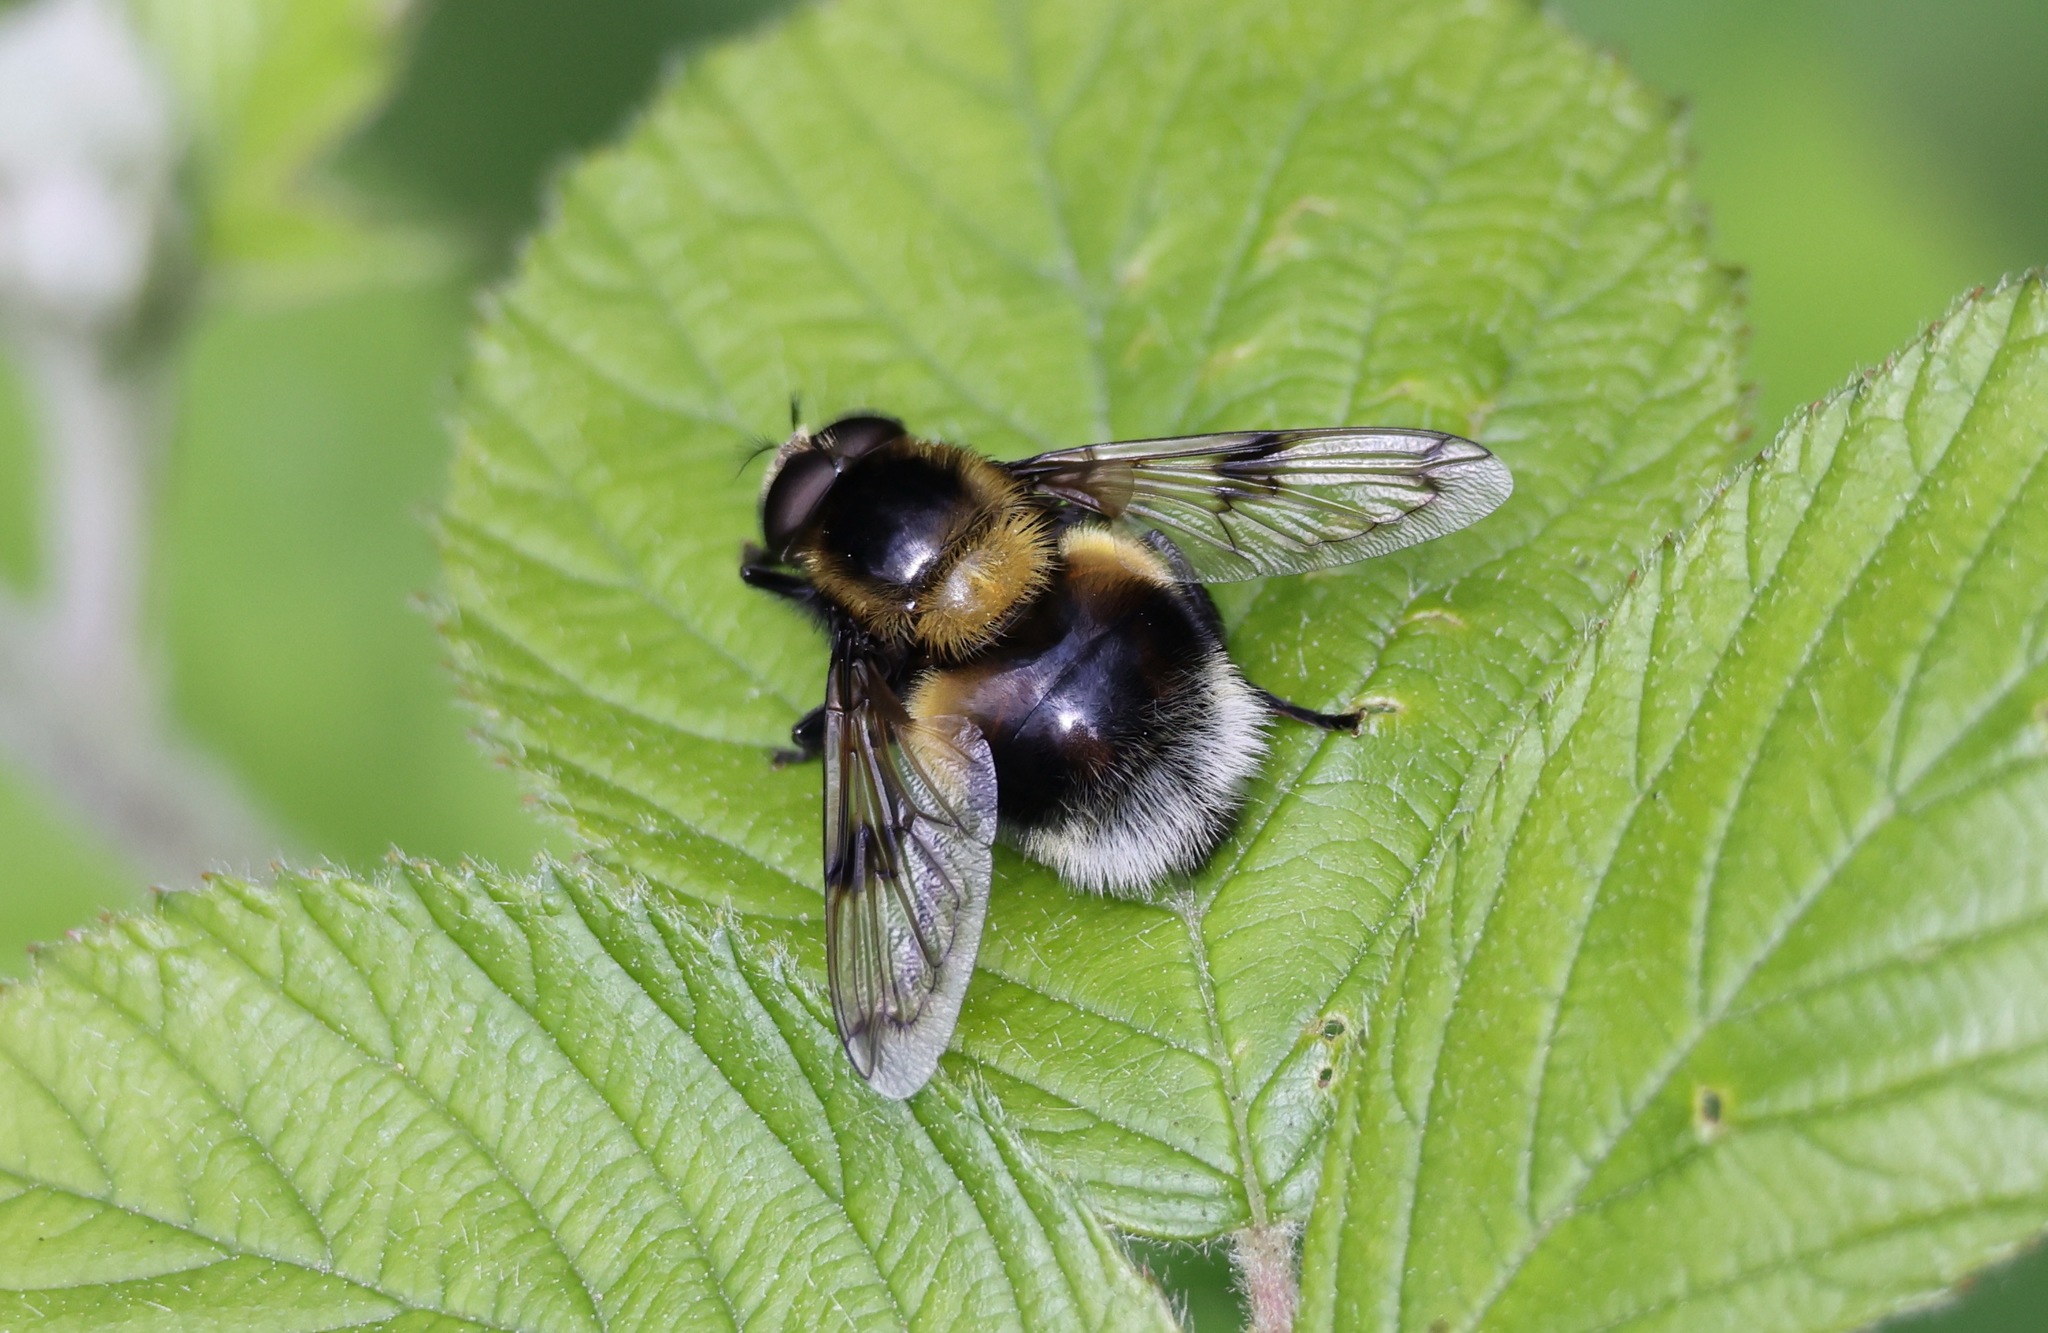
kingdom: Animalia
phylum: Arthropoda
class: Insecta
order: Diptera
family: Syrphidae
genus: Volucella
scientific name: Volucella bombylans
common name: Bumble bee hover fly
